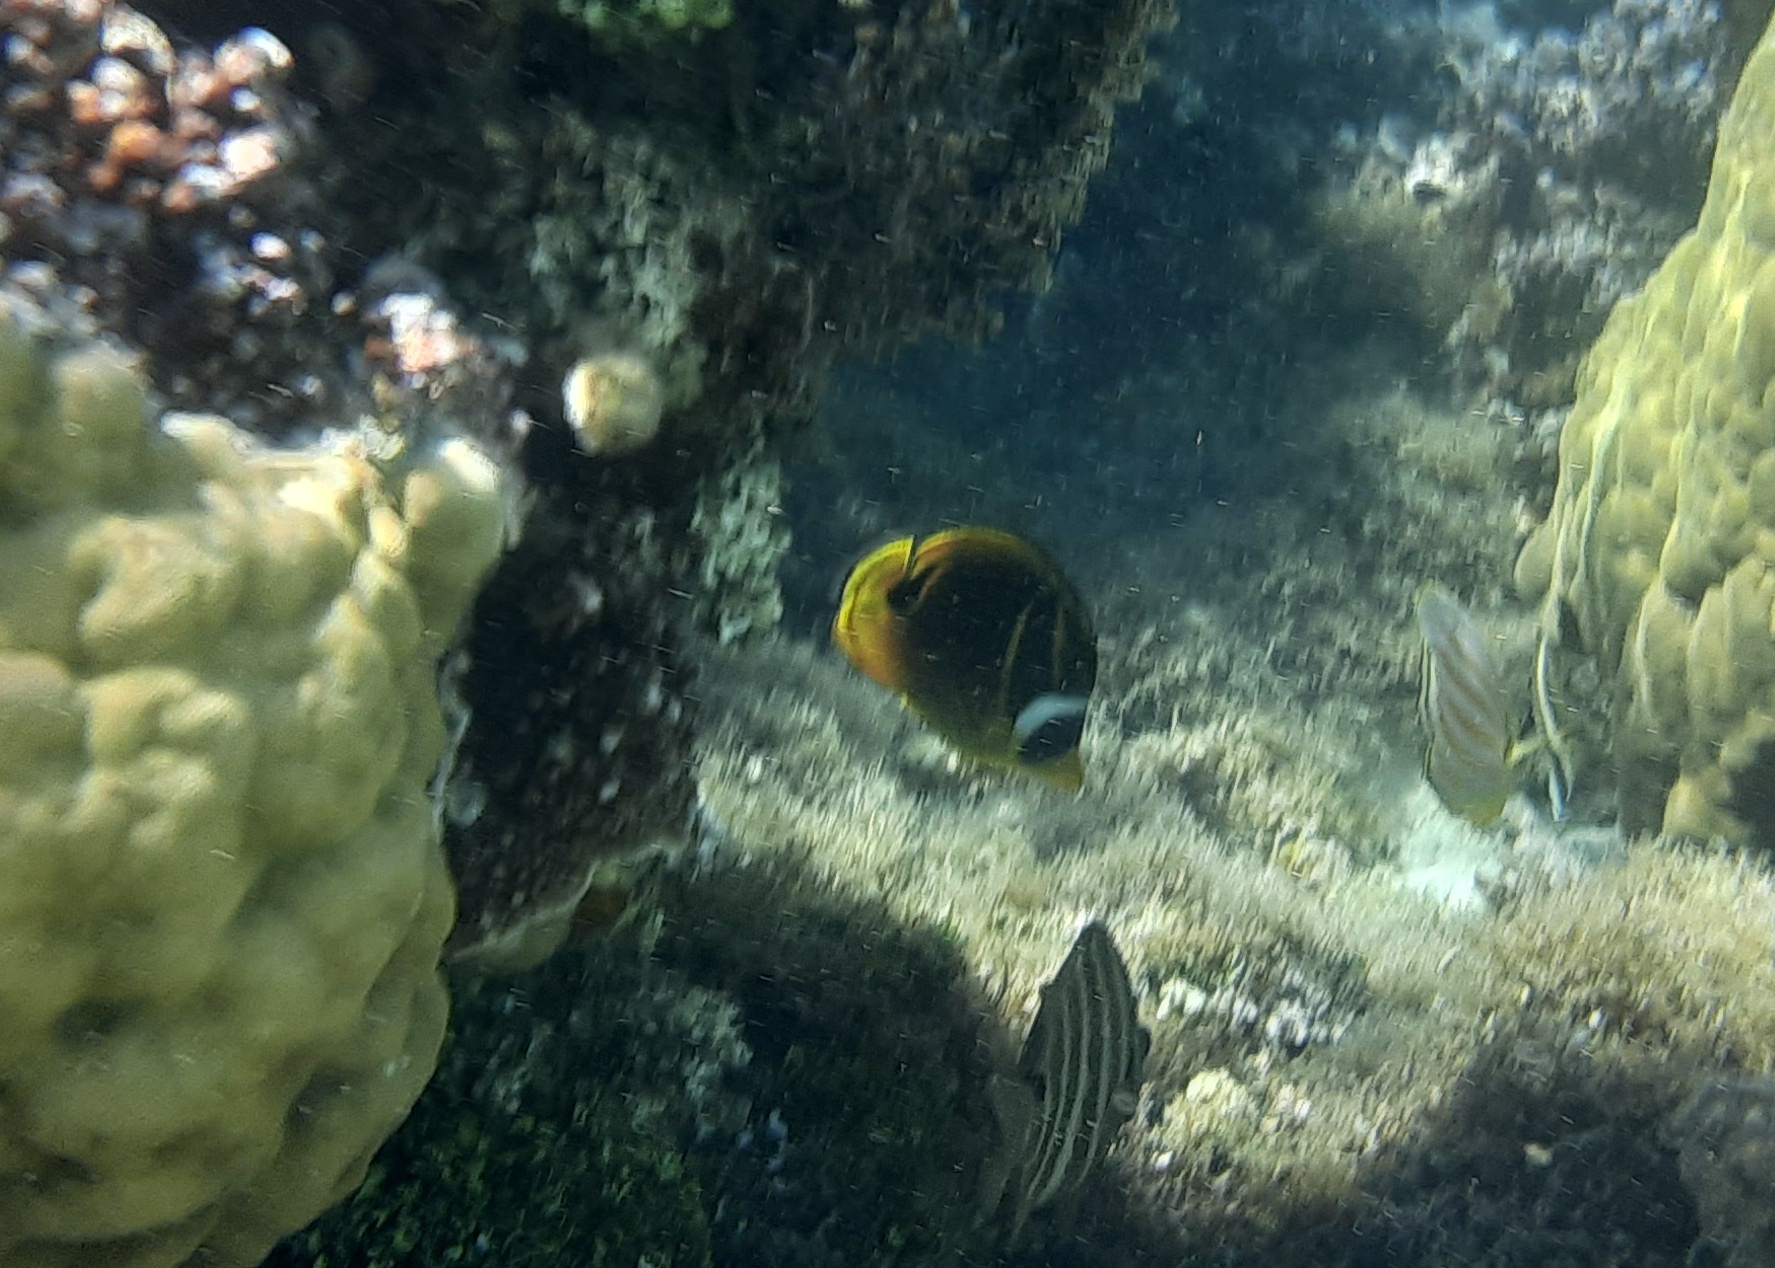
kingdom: Animalia
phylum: Chordata
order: Perciformes
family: Chaetodontidae
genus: Chaetodon
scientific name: Chaetodon lunula
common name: Raccoon butterflyfish
